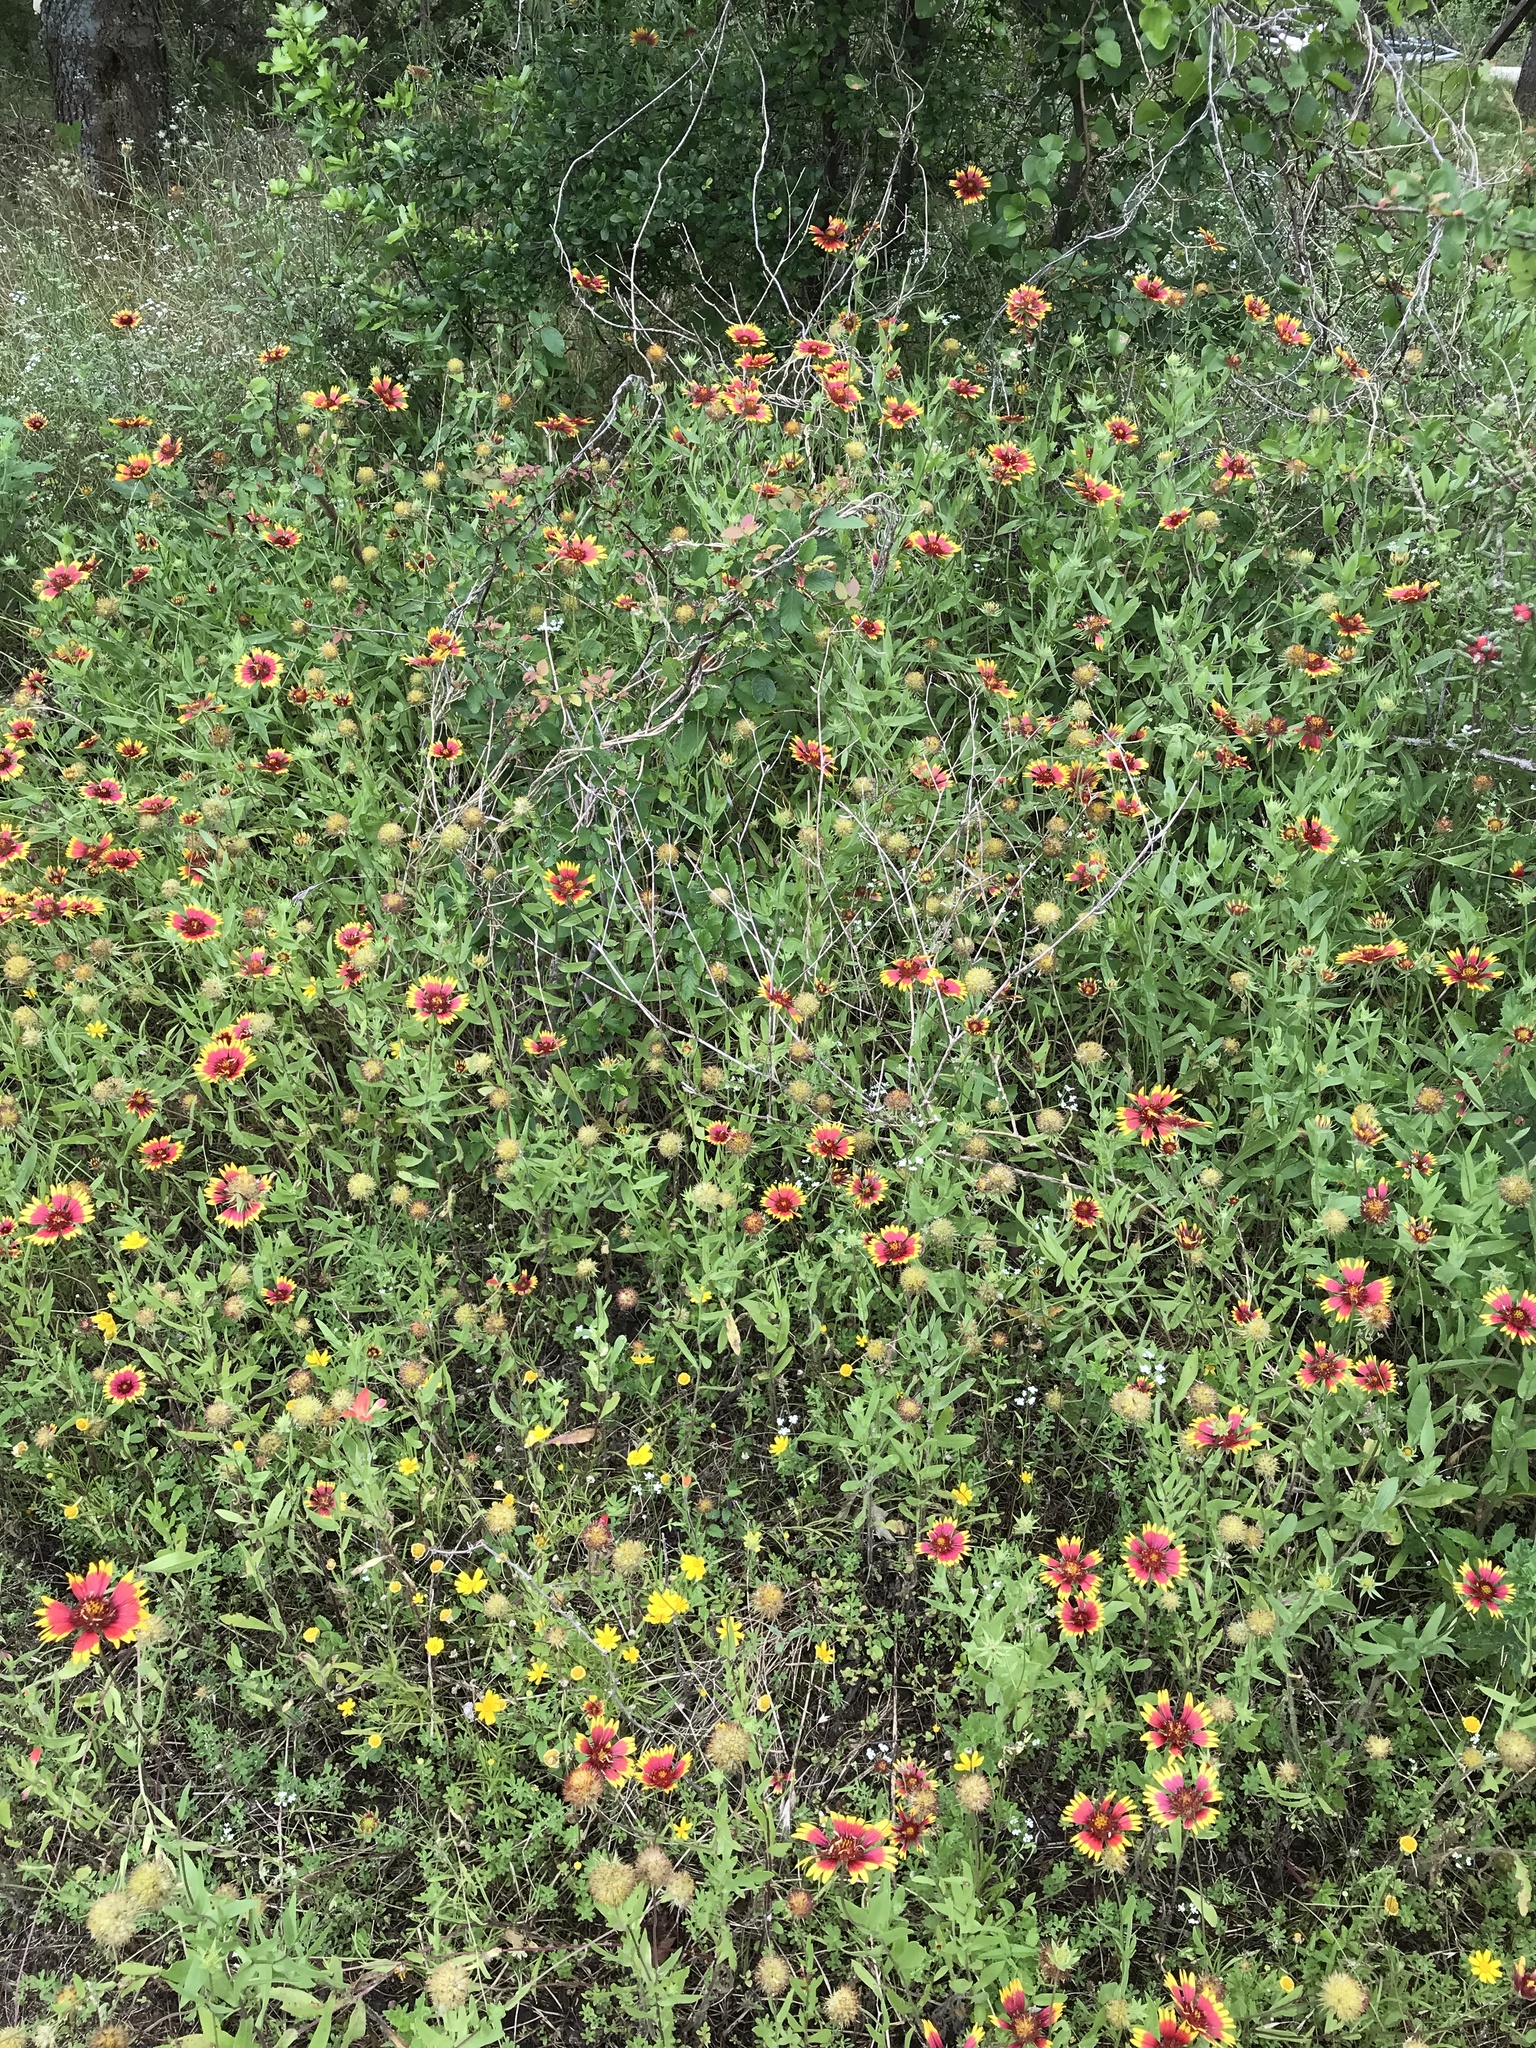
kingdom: Plantae
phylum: Tracheophyta
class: Magnoliopsida
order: Asterales
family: Asteraceae
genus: Gaillardia
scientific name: Gaillardia pulchella
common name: Firewheel
